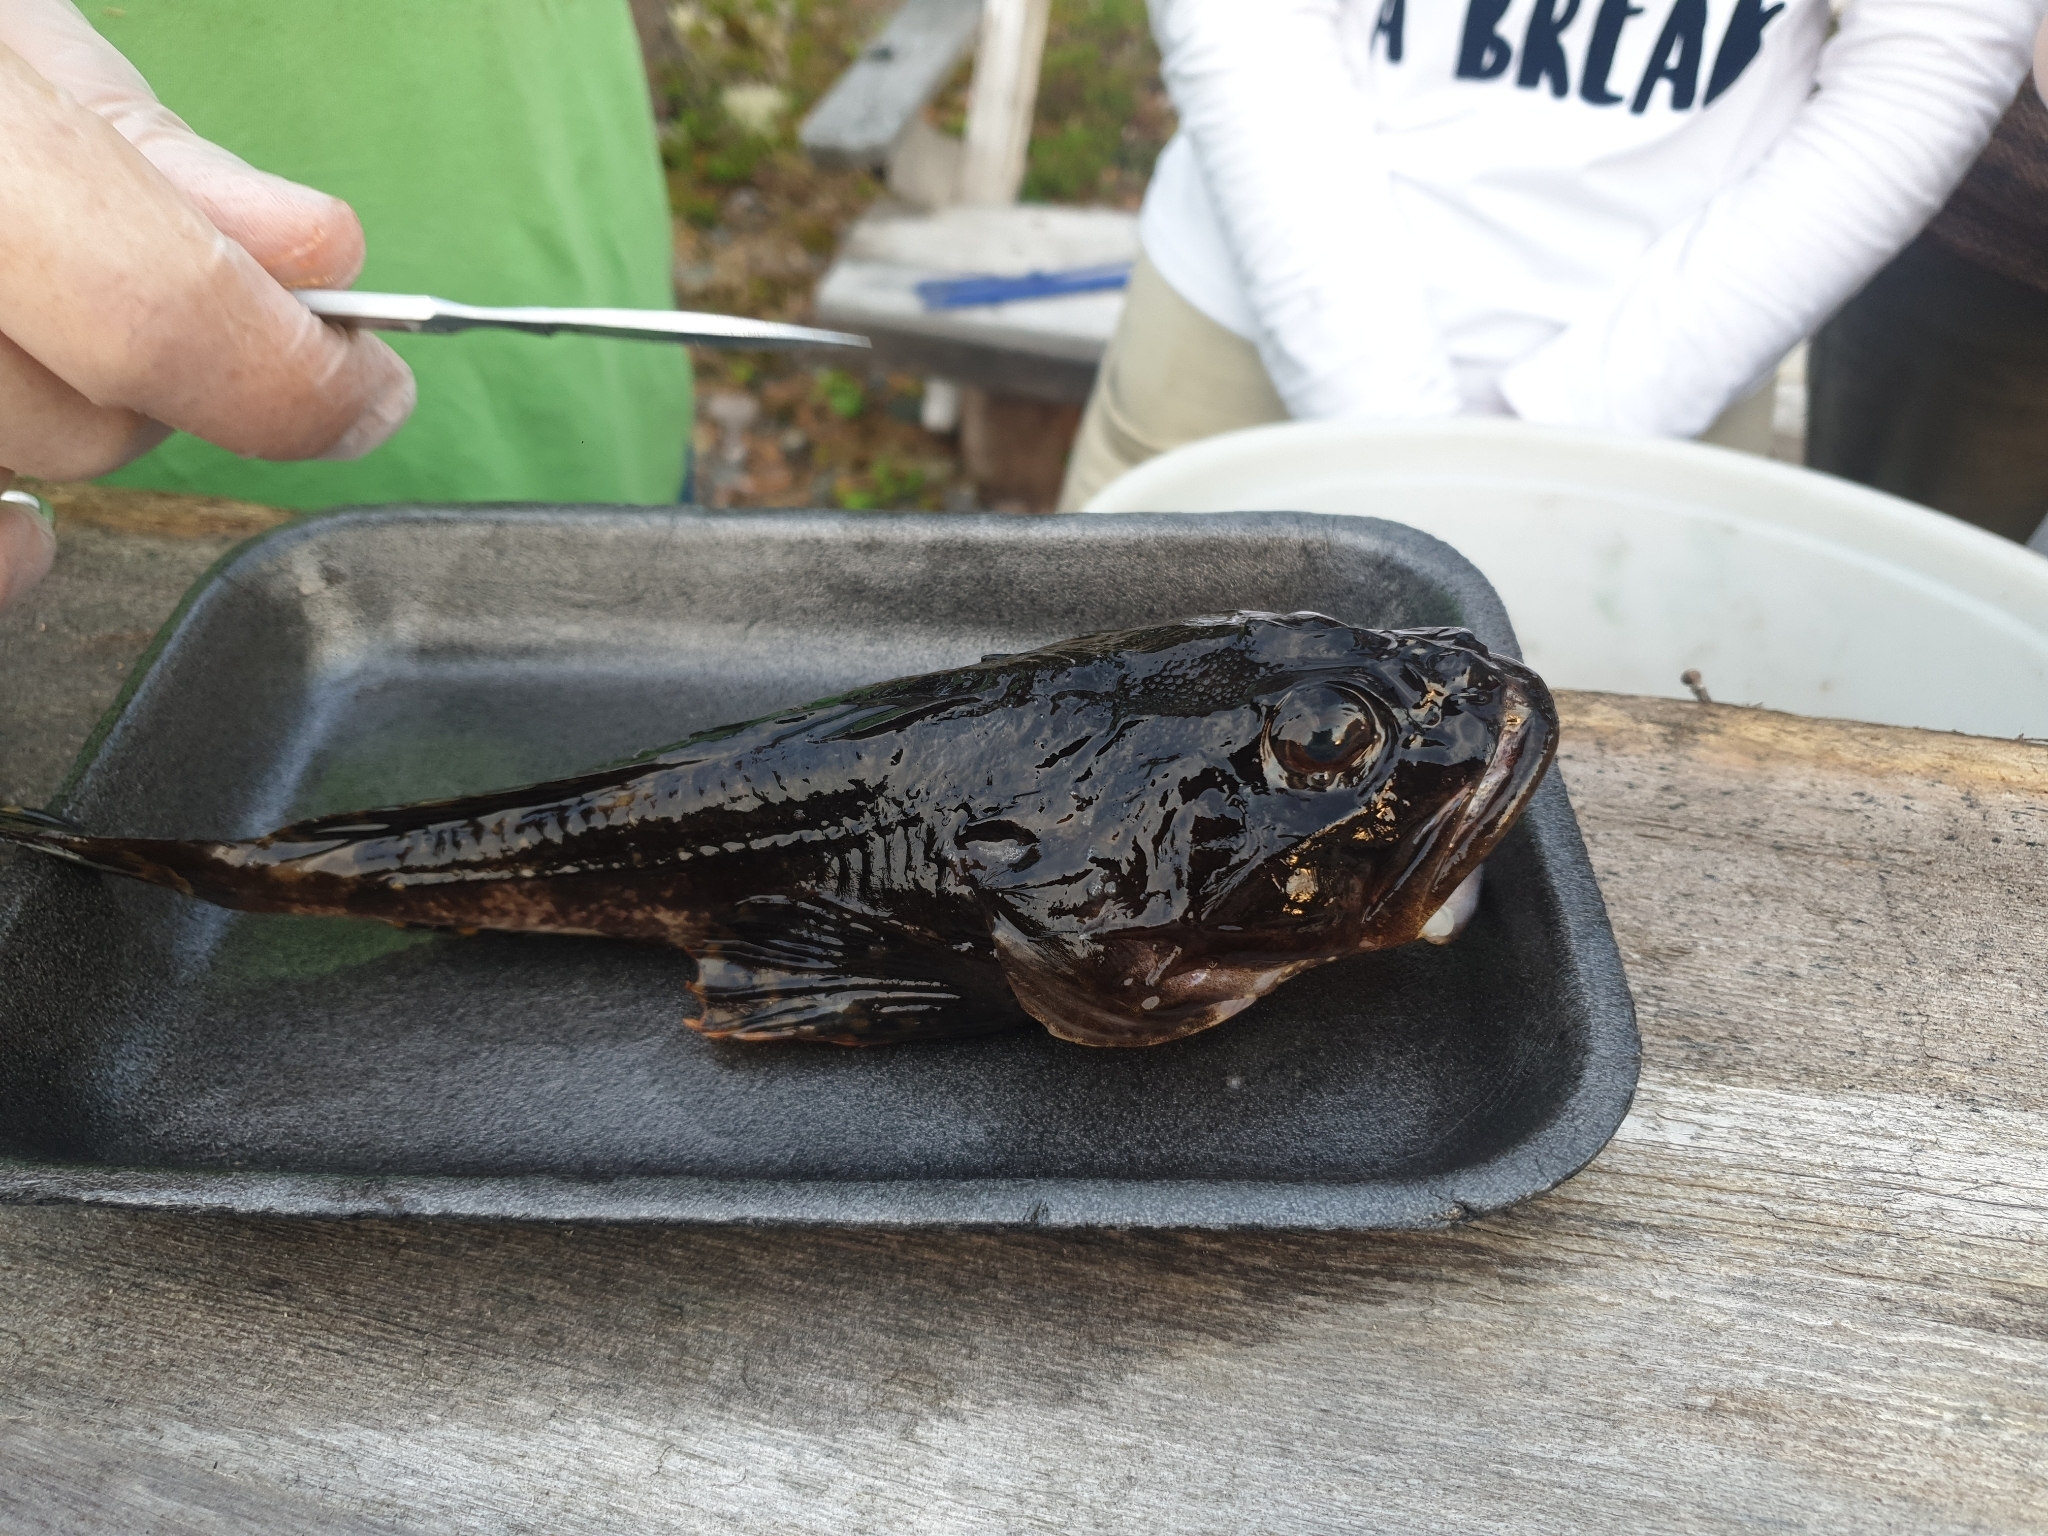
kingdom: Animalia
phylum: Chordata
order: Scorpaeniformes
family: Cottidae
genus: Myoxocephalus
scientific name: Myoxocephalus scorpius
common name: Shorthorn sculpin
